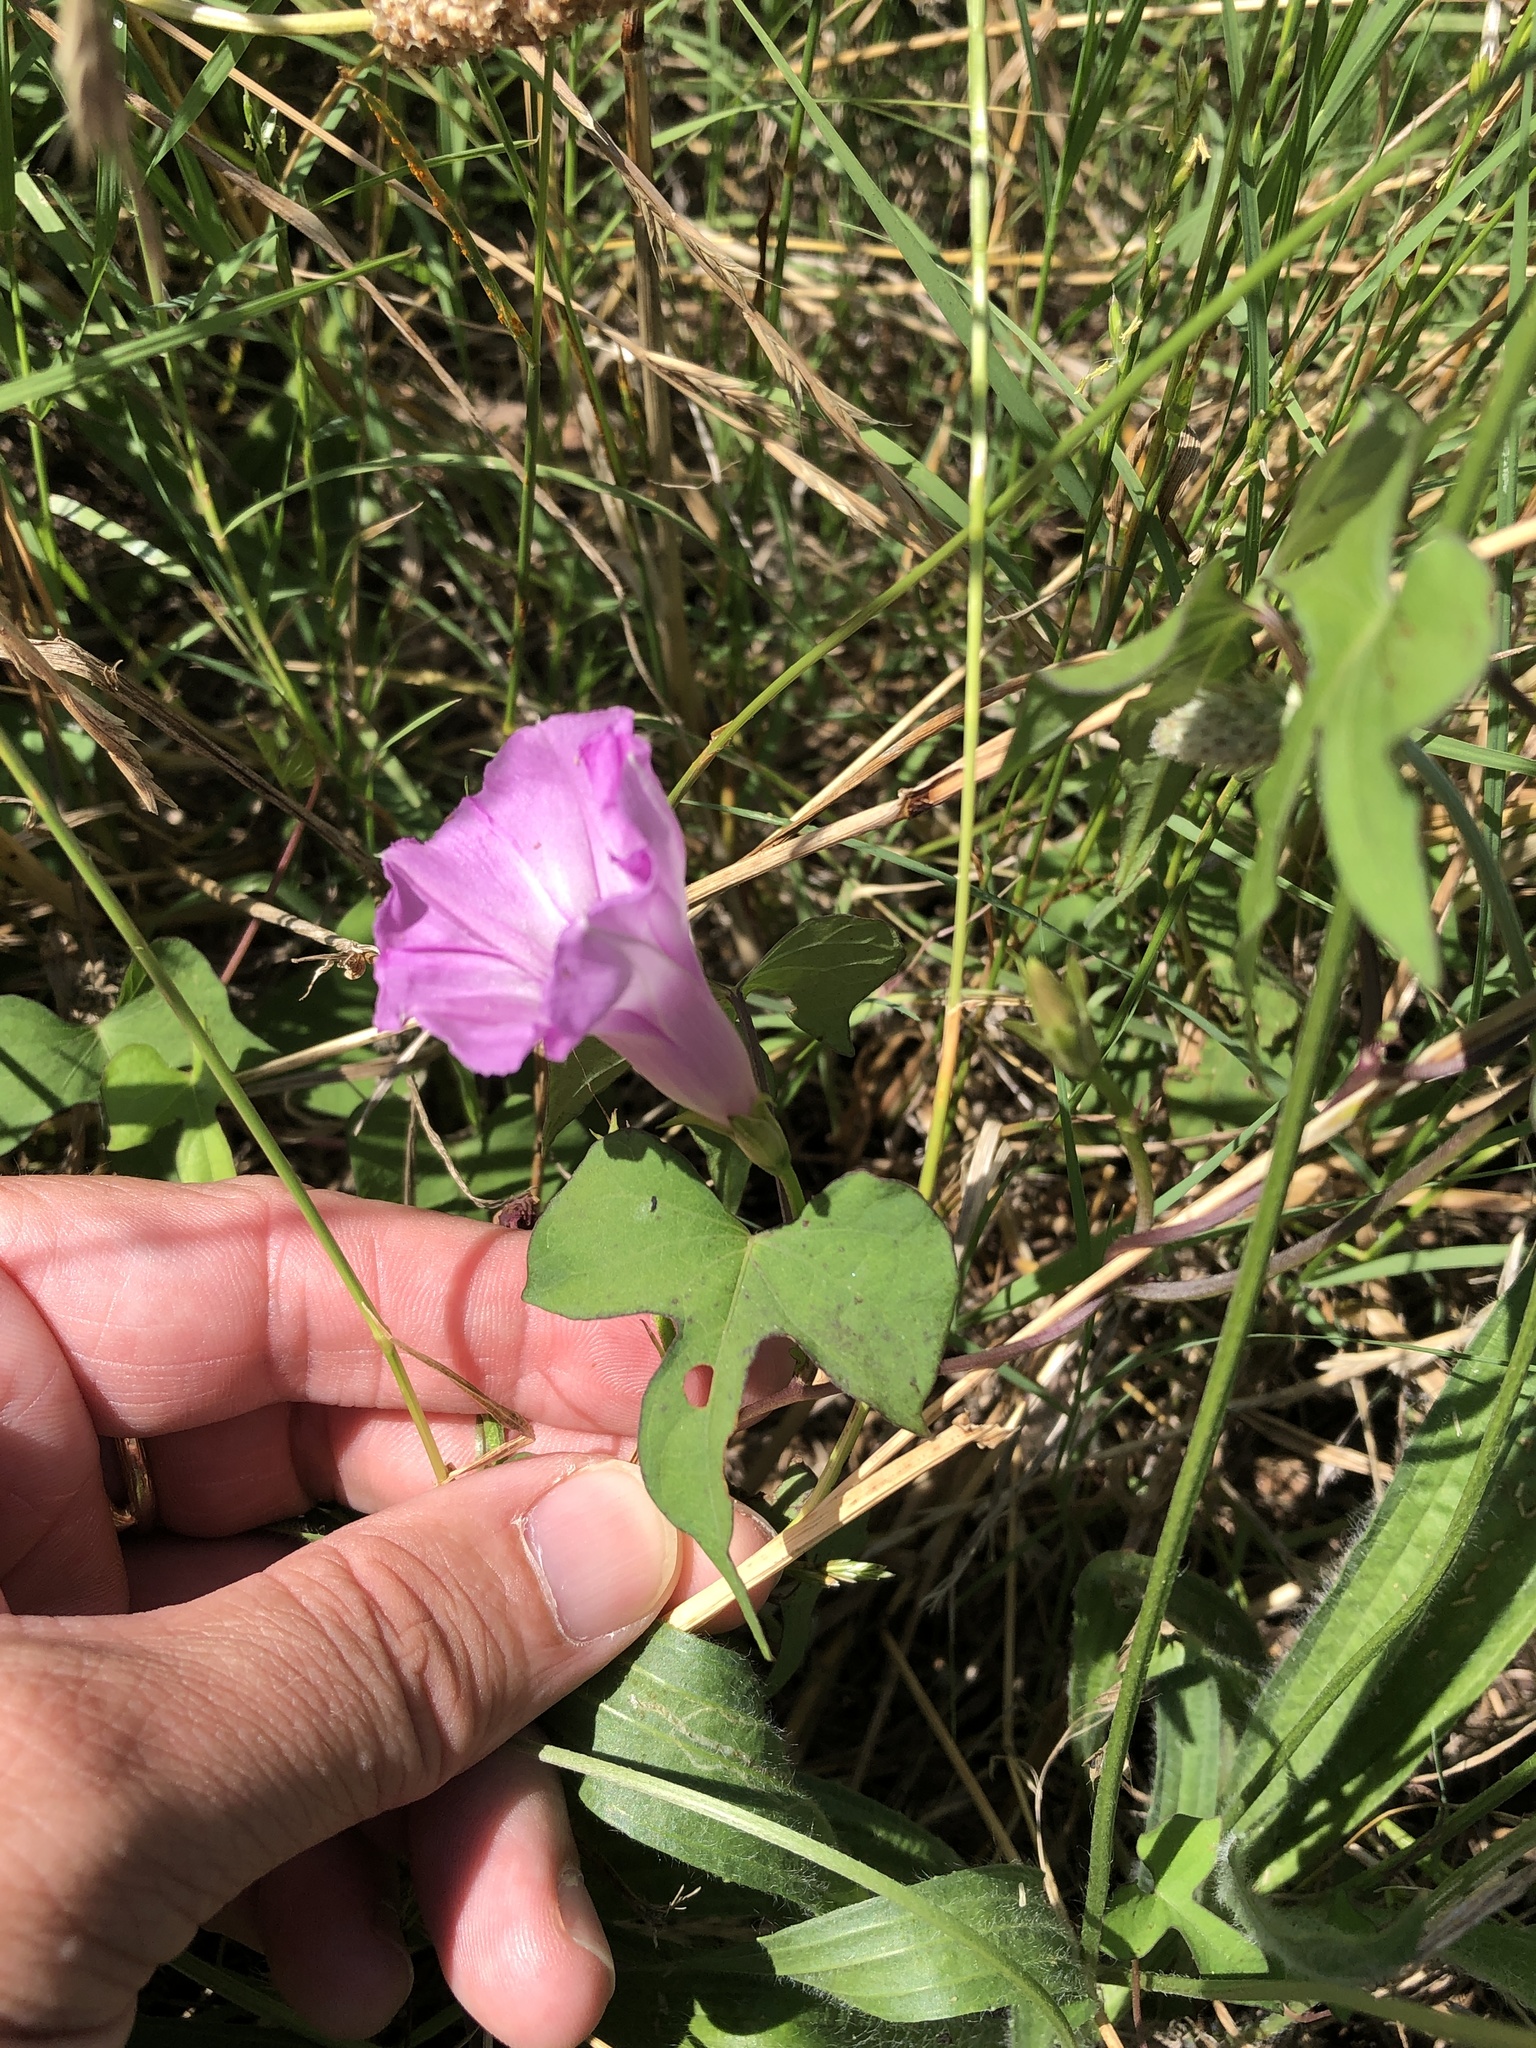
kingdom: Plantae
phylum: Tracheophyta
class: Magnoliopsida
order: Solanales
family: Convolvulaceae
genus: Ipomoea
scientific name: Ipomoea cordatotriloba
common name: Cotton morning glory
